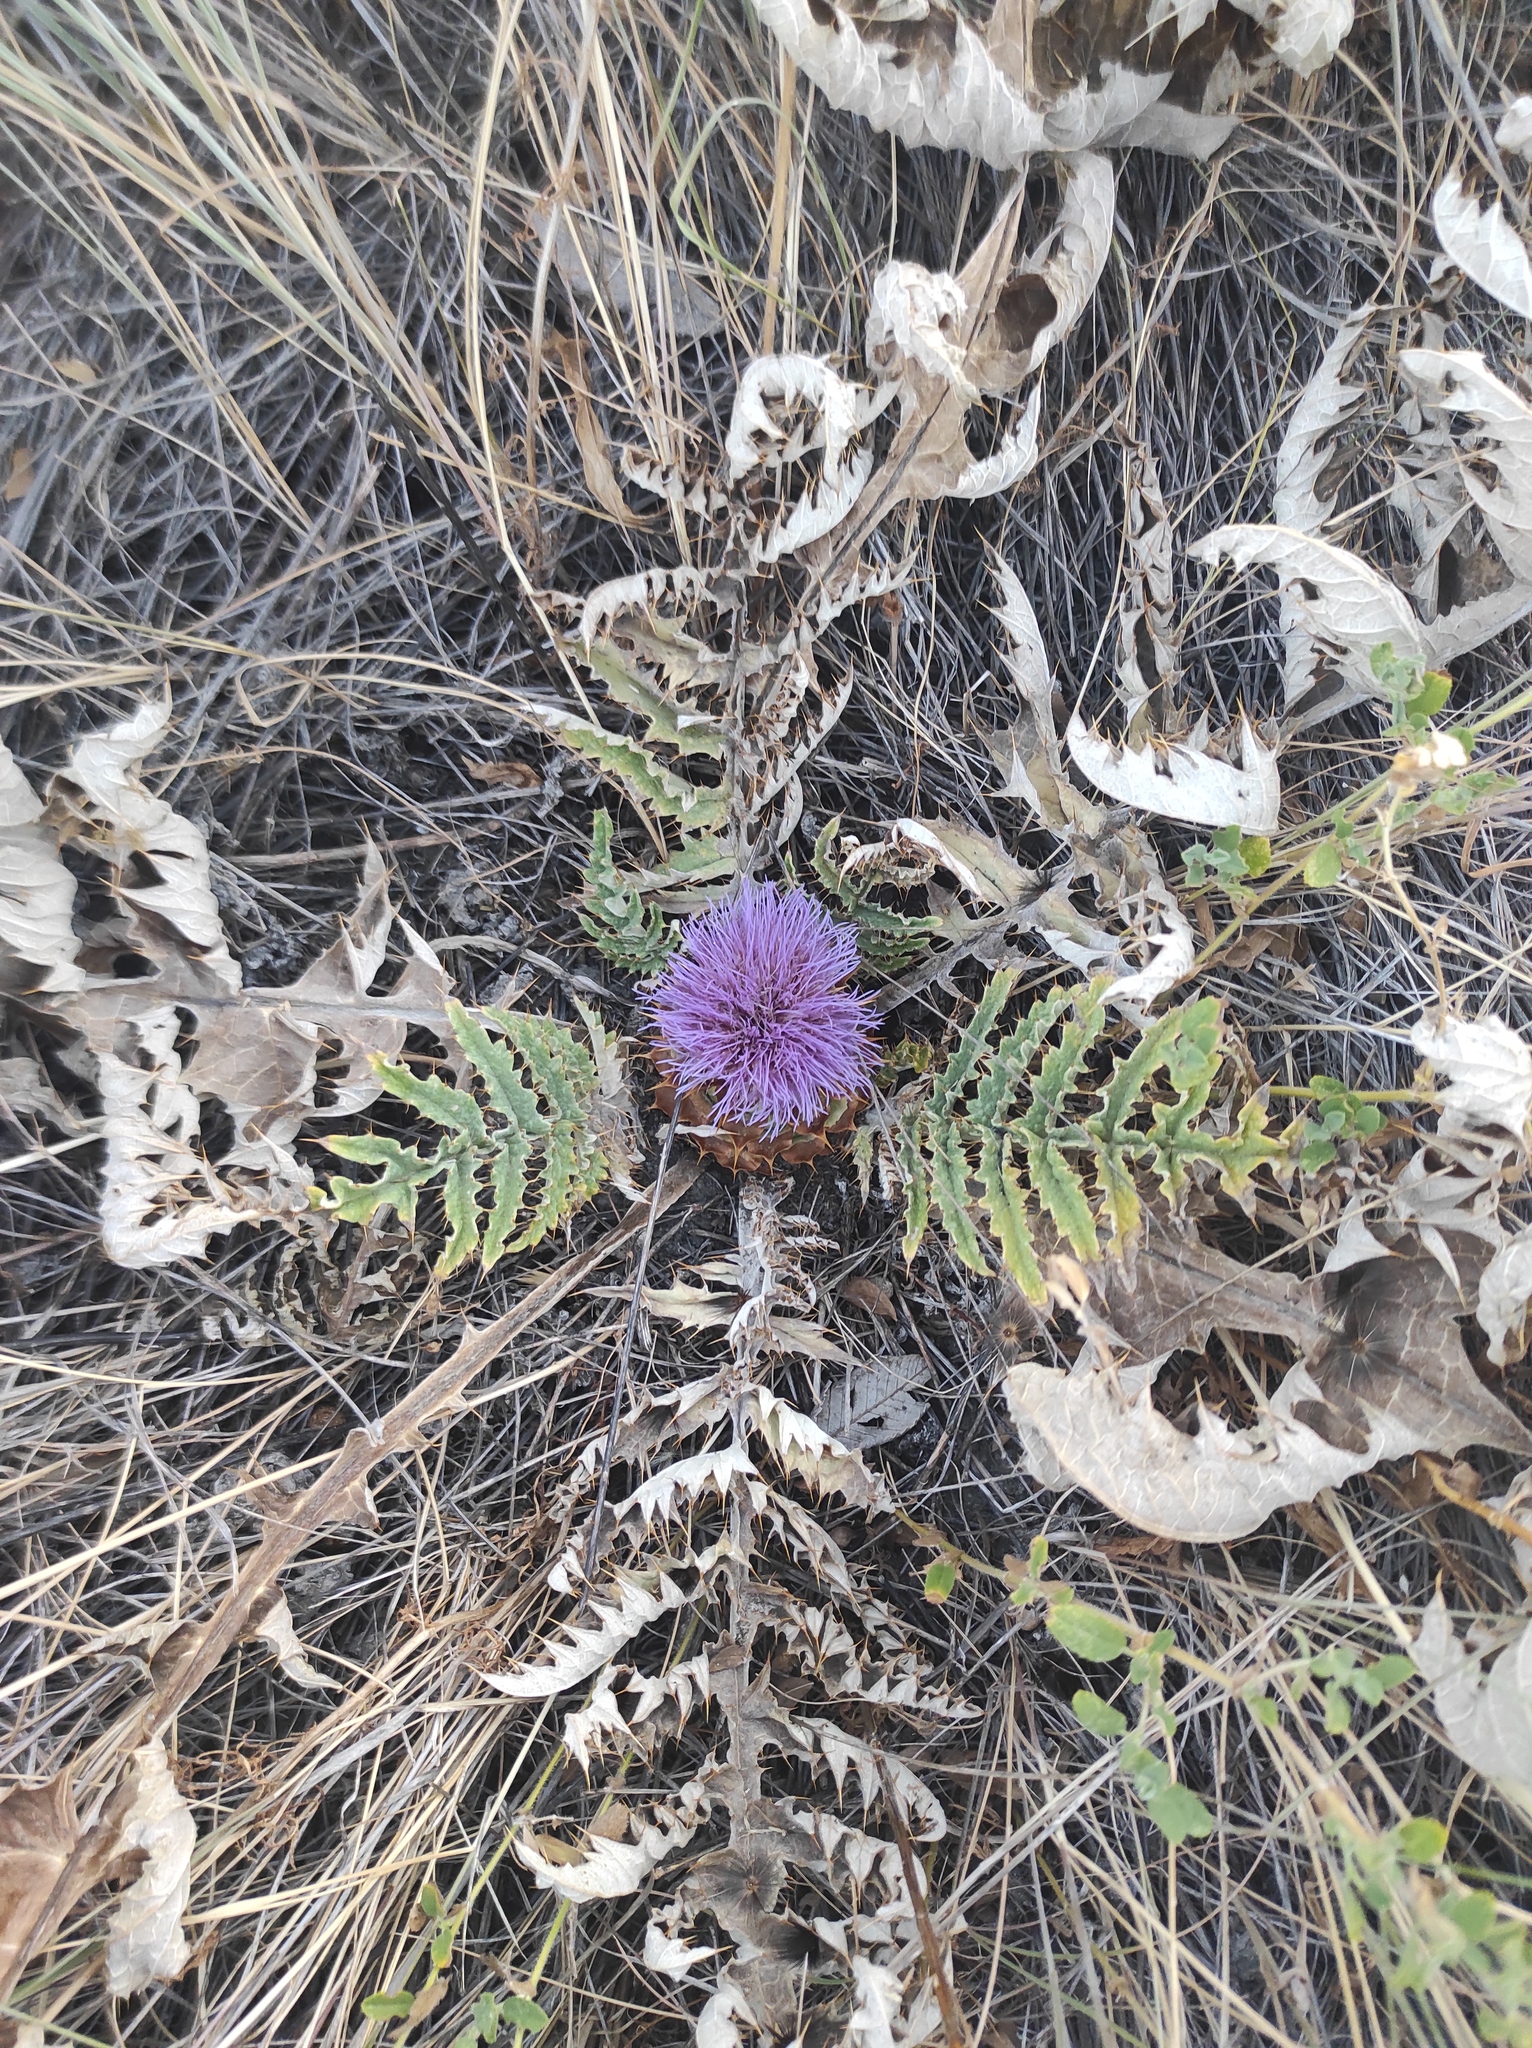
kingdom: Plantae
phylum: Tracheophyta
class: Magnoliopsida
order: Asterales
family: Asteraceae
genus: Cynara
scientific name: Cynara tournefortii
